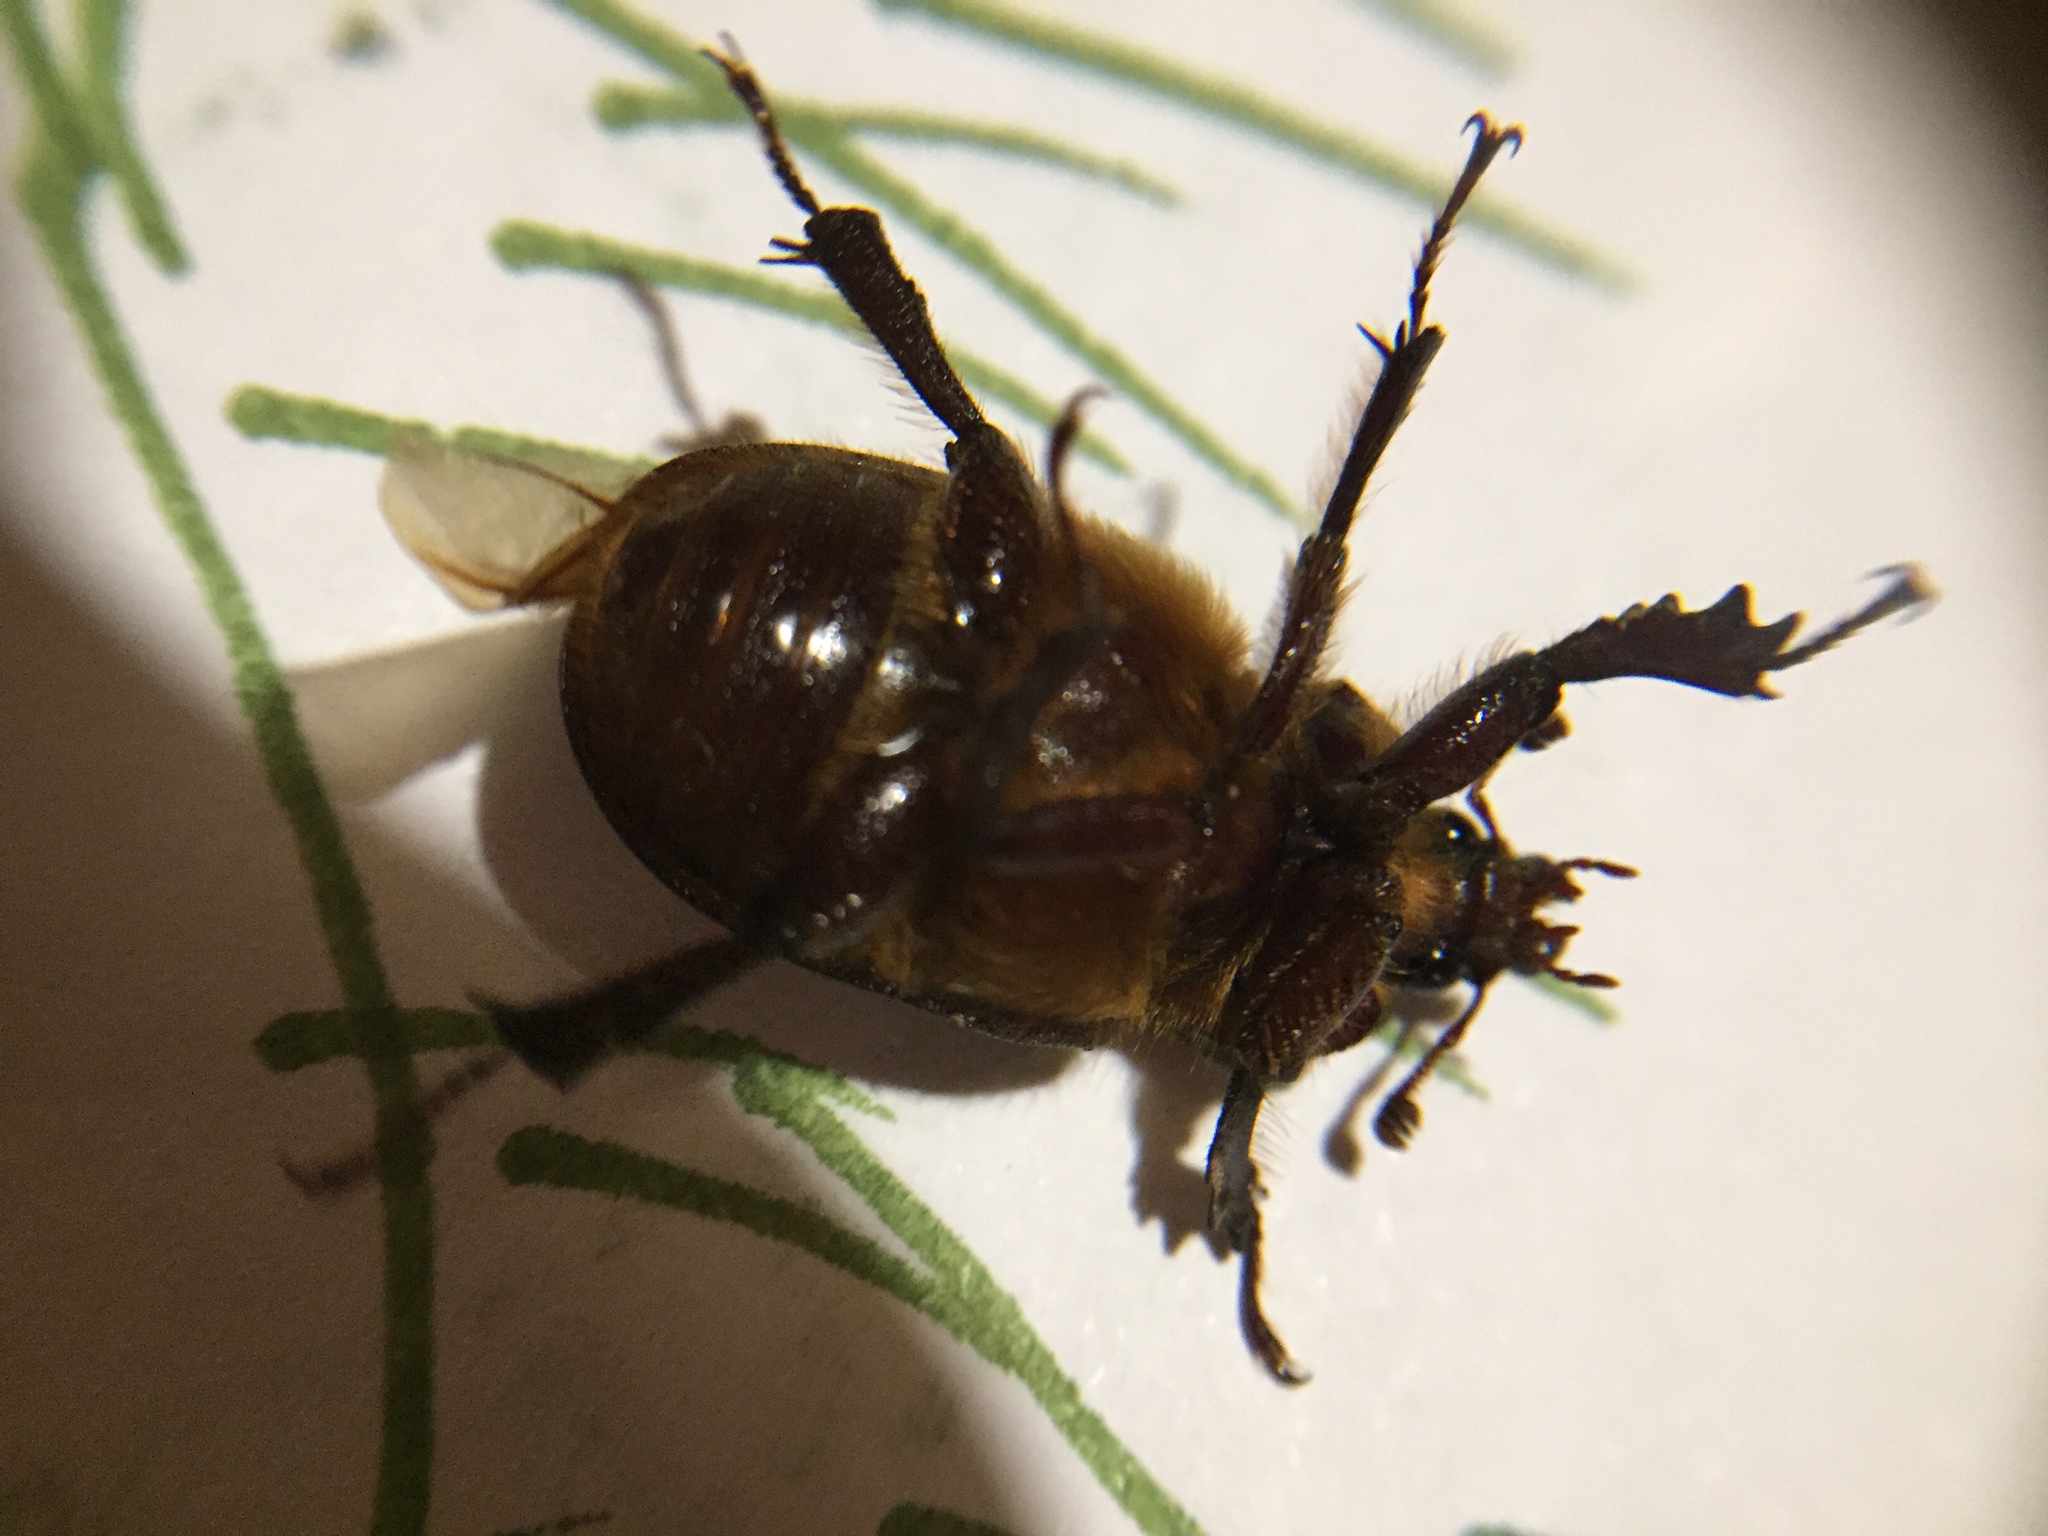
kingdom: Animalia
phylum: Arthropoda
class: Insecta
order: Coleoptera
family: Lucanidae
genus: Dendroblax
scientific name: Dendroblax earlii
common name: Earl's stag beetle
